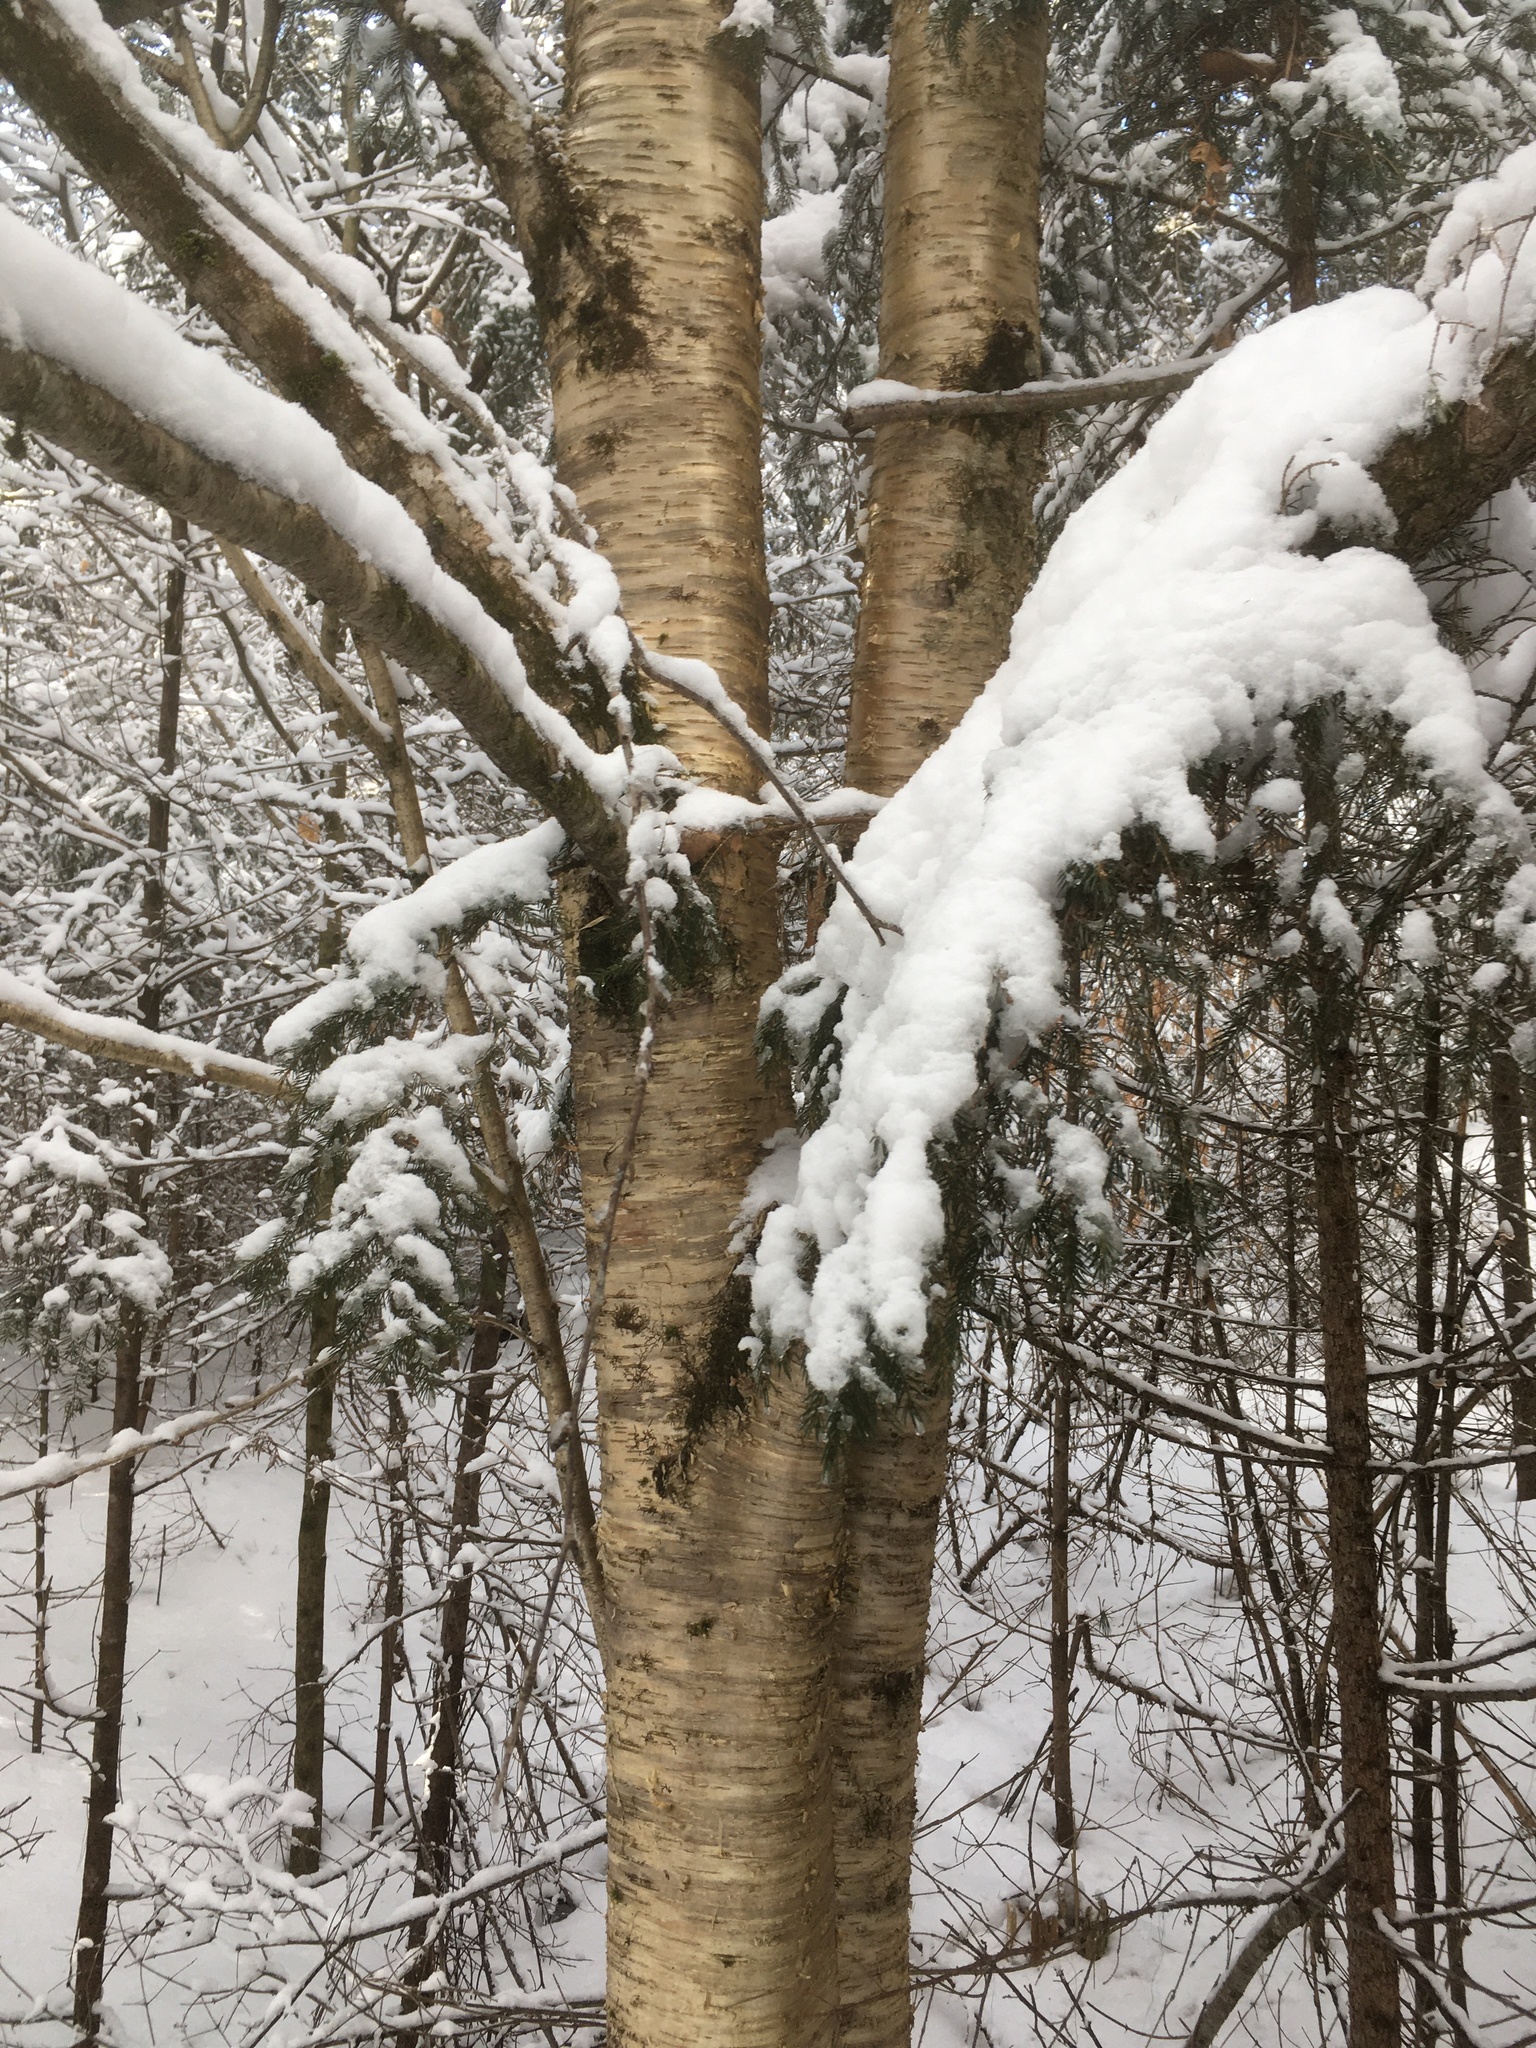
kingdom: Plantae
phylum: Tracheophyta
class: Magnoliopsida
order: Fagales
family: Betulaceae
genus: Betula
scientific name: Betula alleghaniensis
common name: Yellow birch
